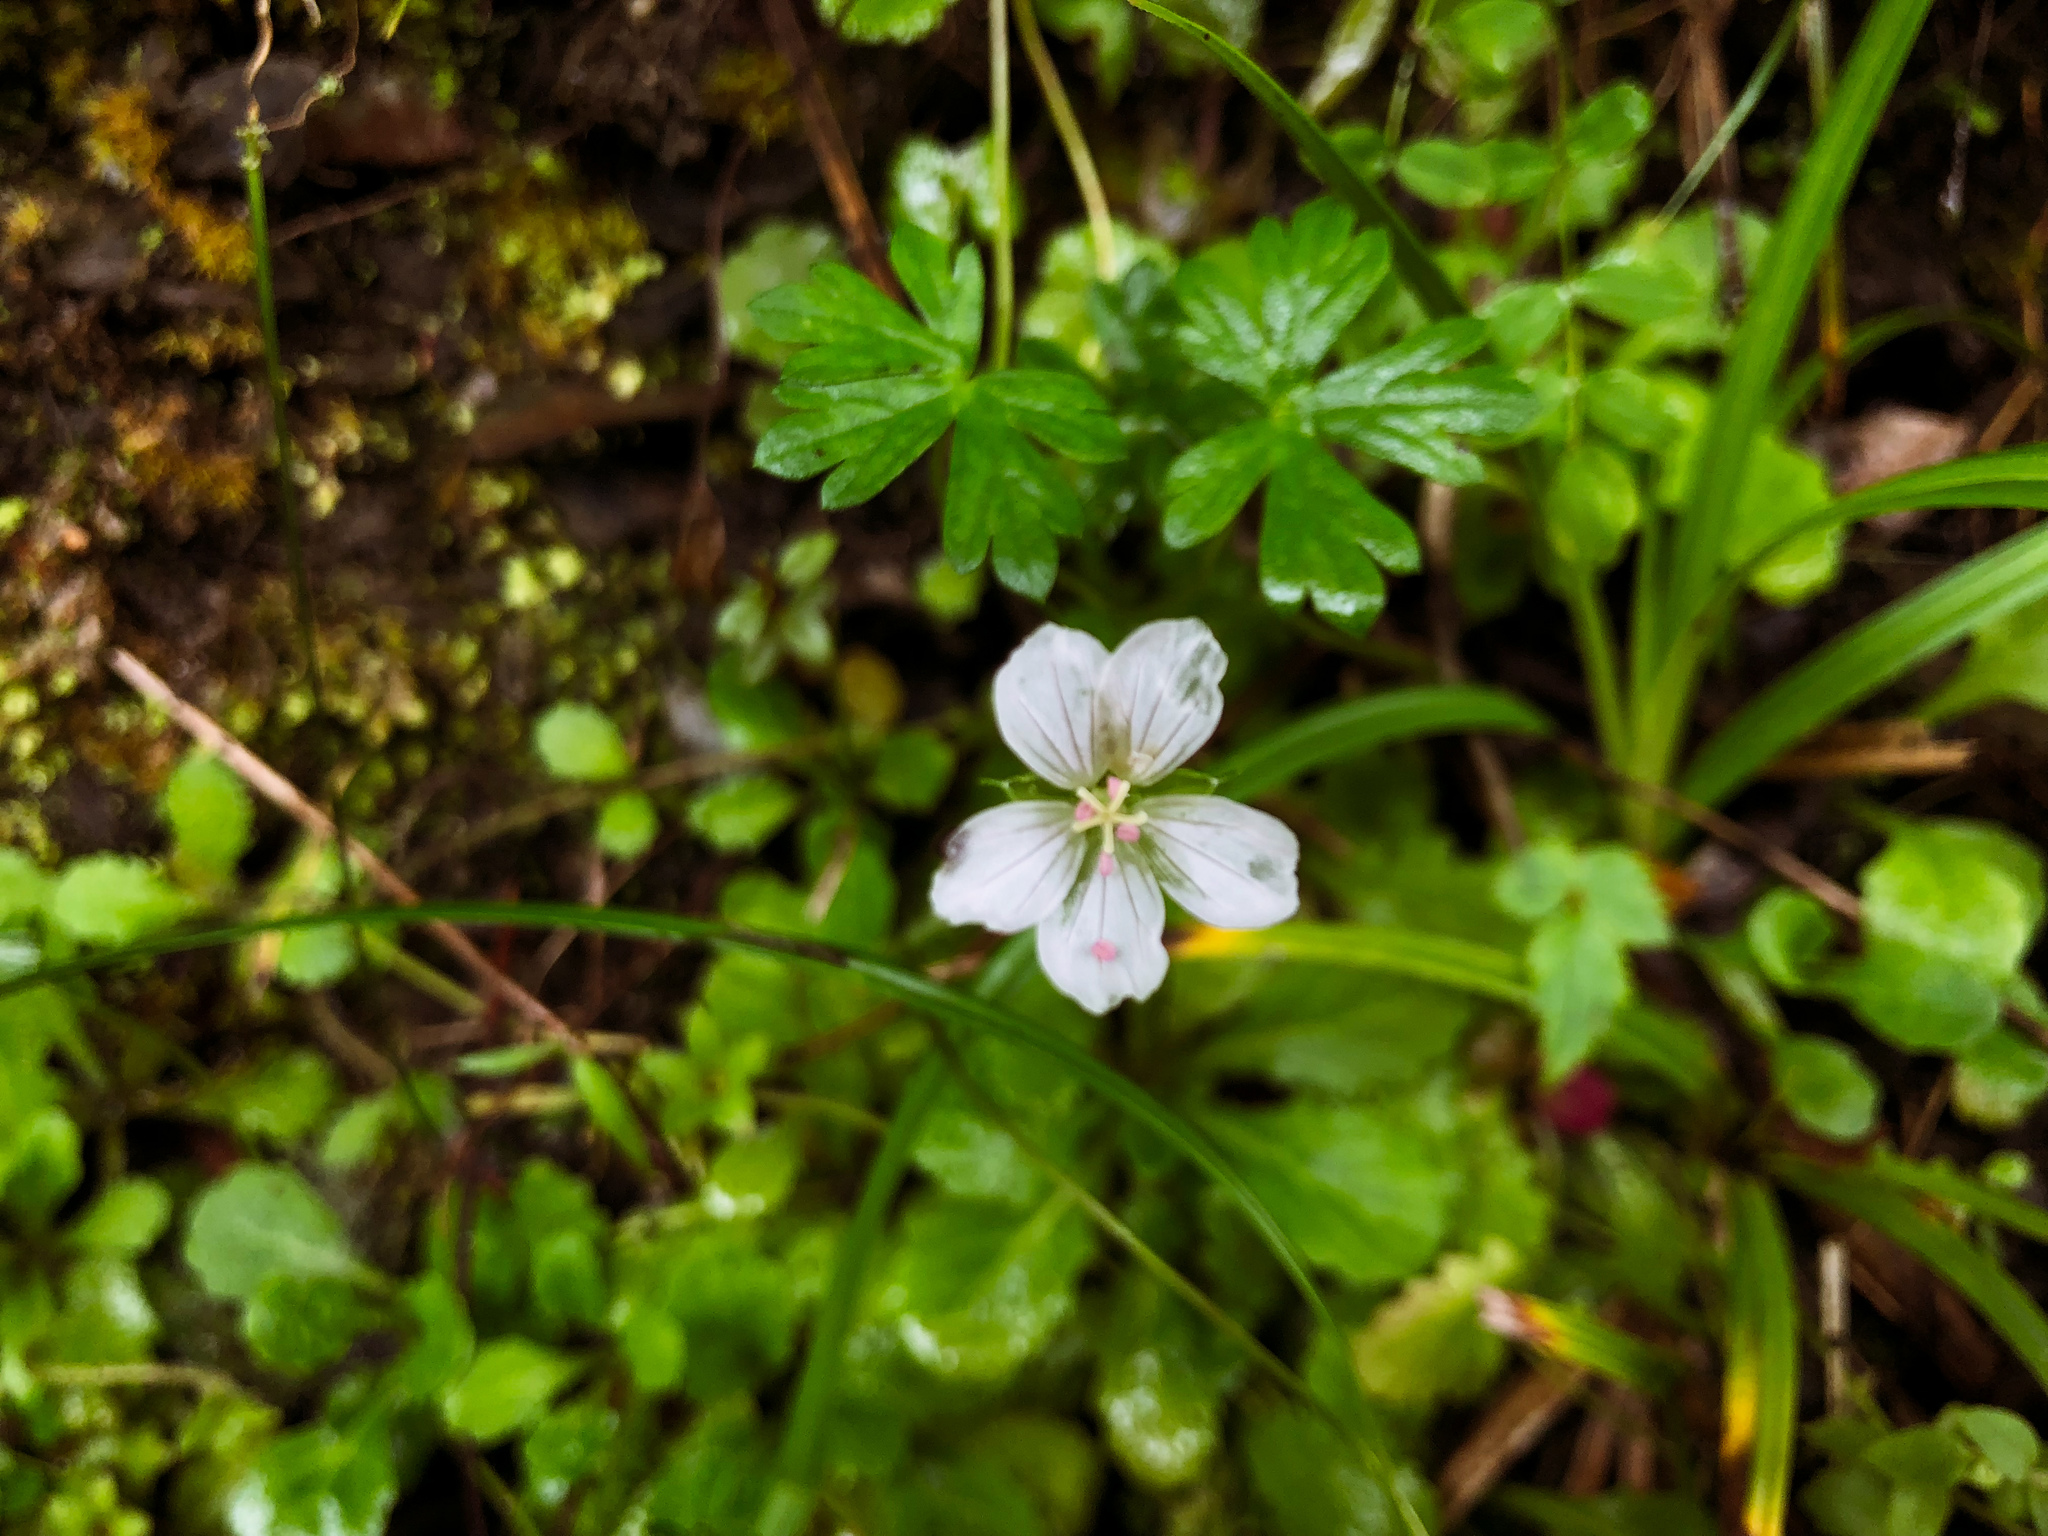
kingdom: Plantae
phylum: Tracheophyta
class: Magnoliopsida
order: Geraniales
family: Geraniaceae
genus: Geranium
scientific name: Geranium suzukii
